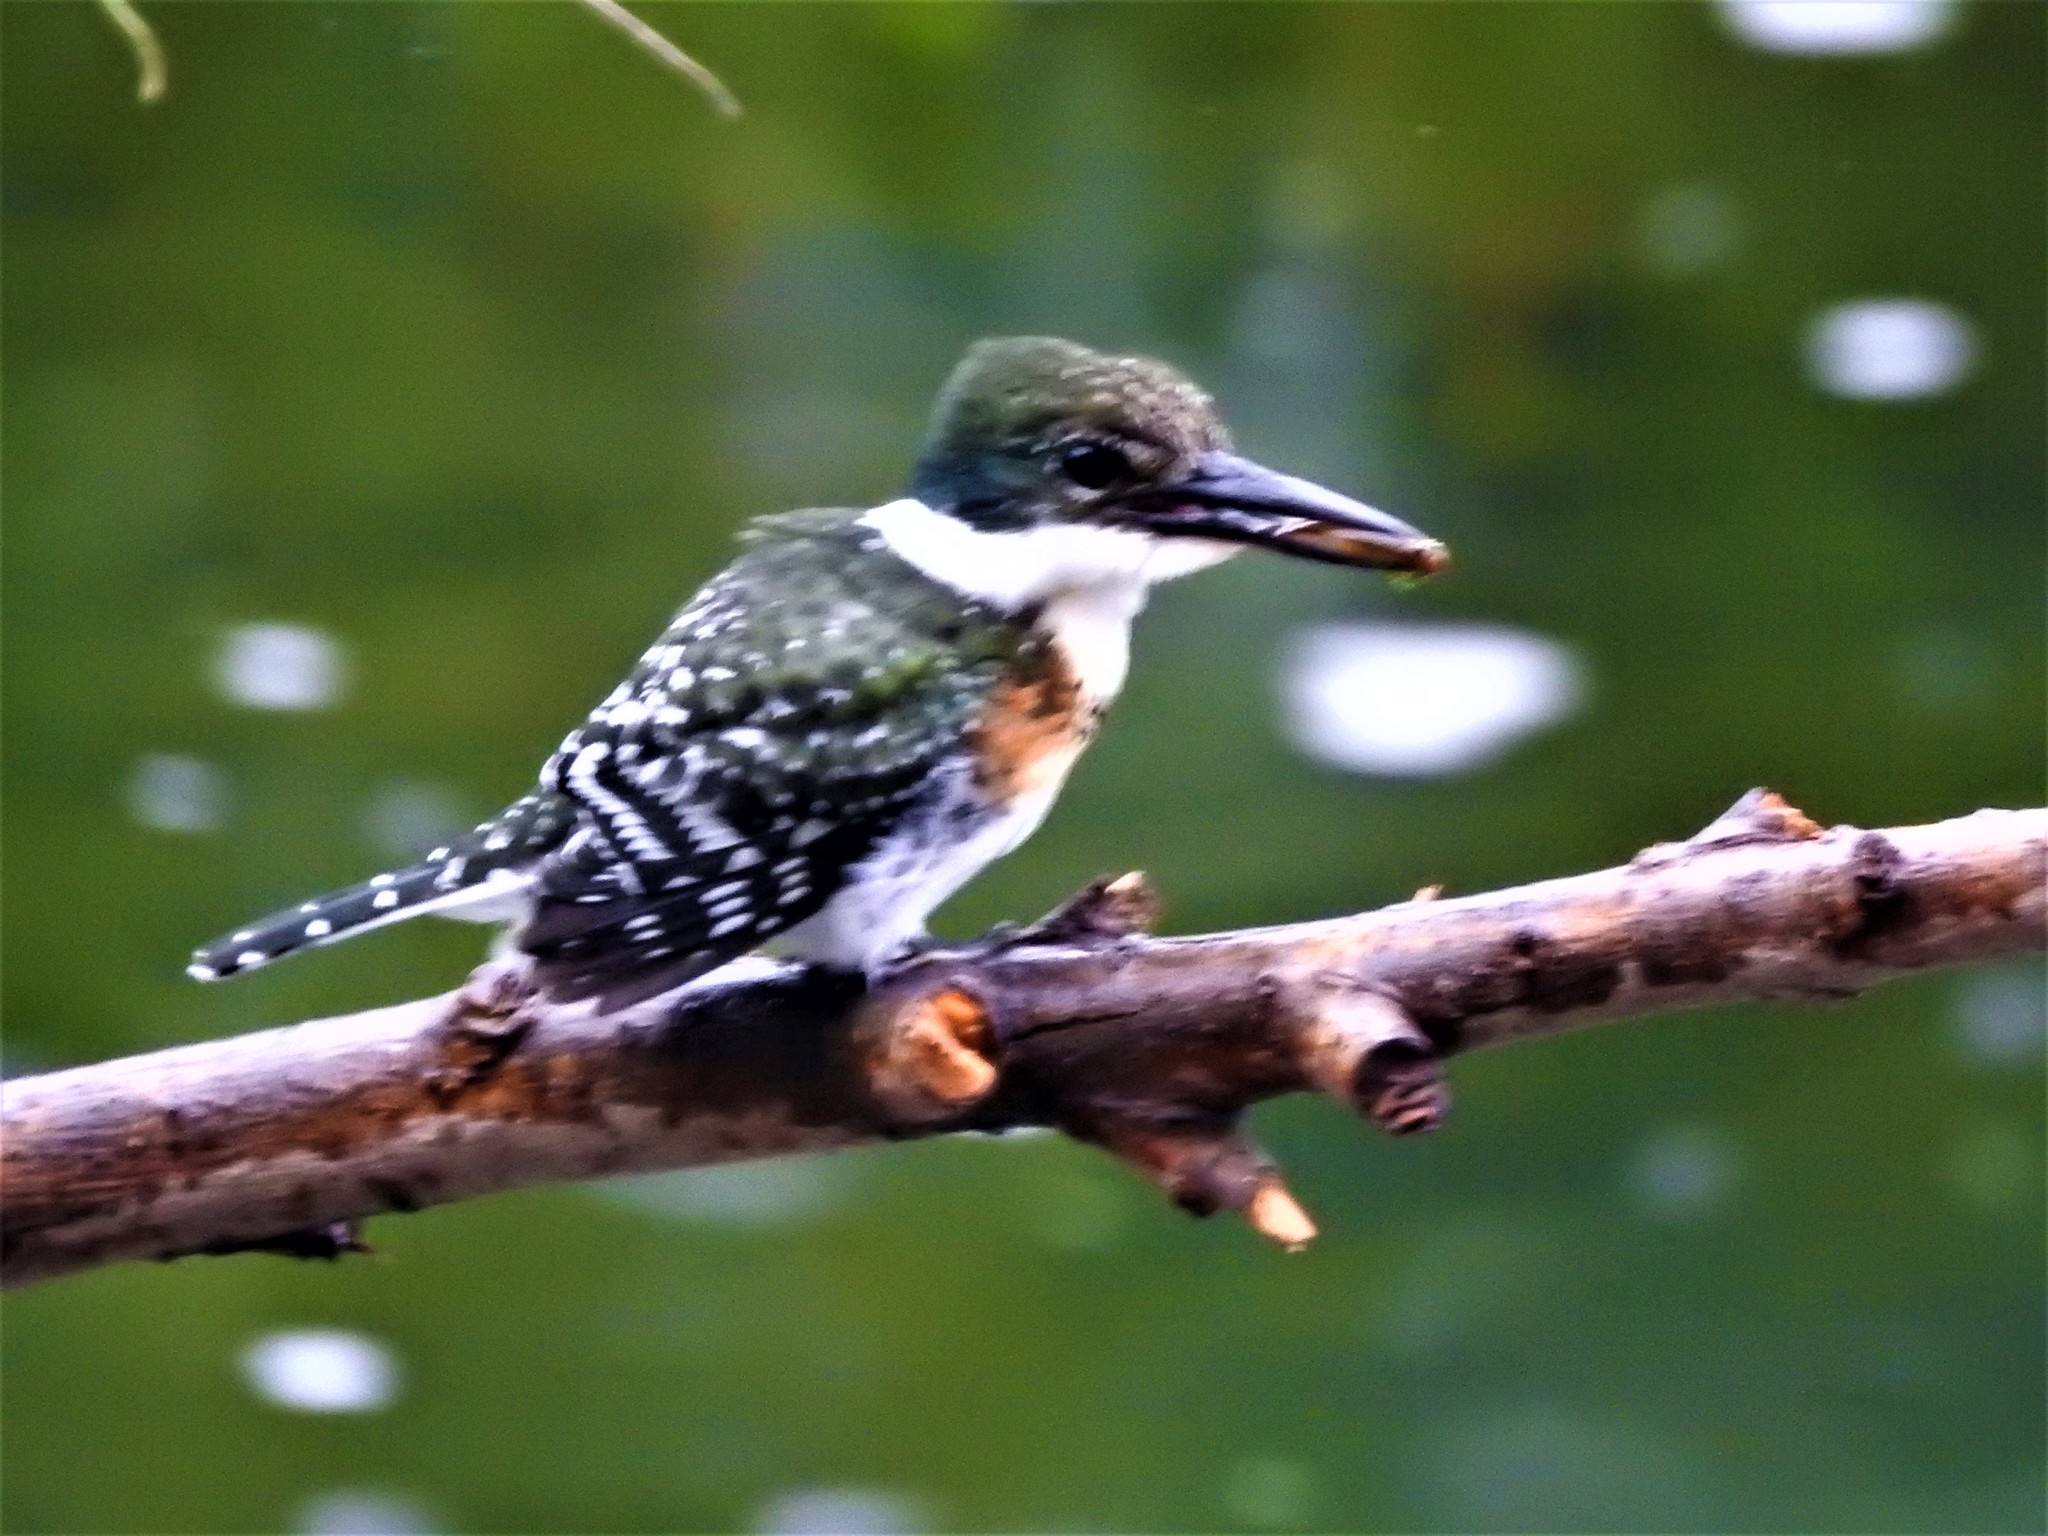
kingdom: Animalia
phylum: Chordata
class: Aves
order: Coraciiformes
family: Alcedinidae
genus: Chloroceryle
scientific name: Chloroceryle americana
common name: Green kingfisher
